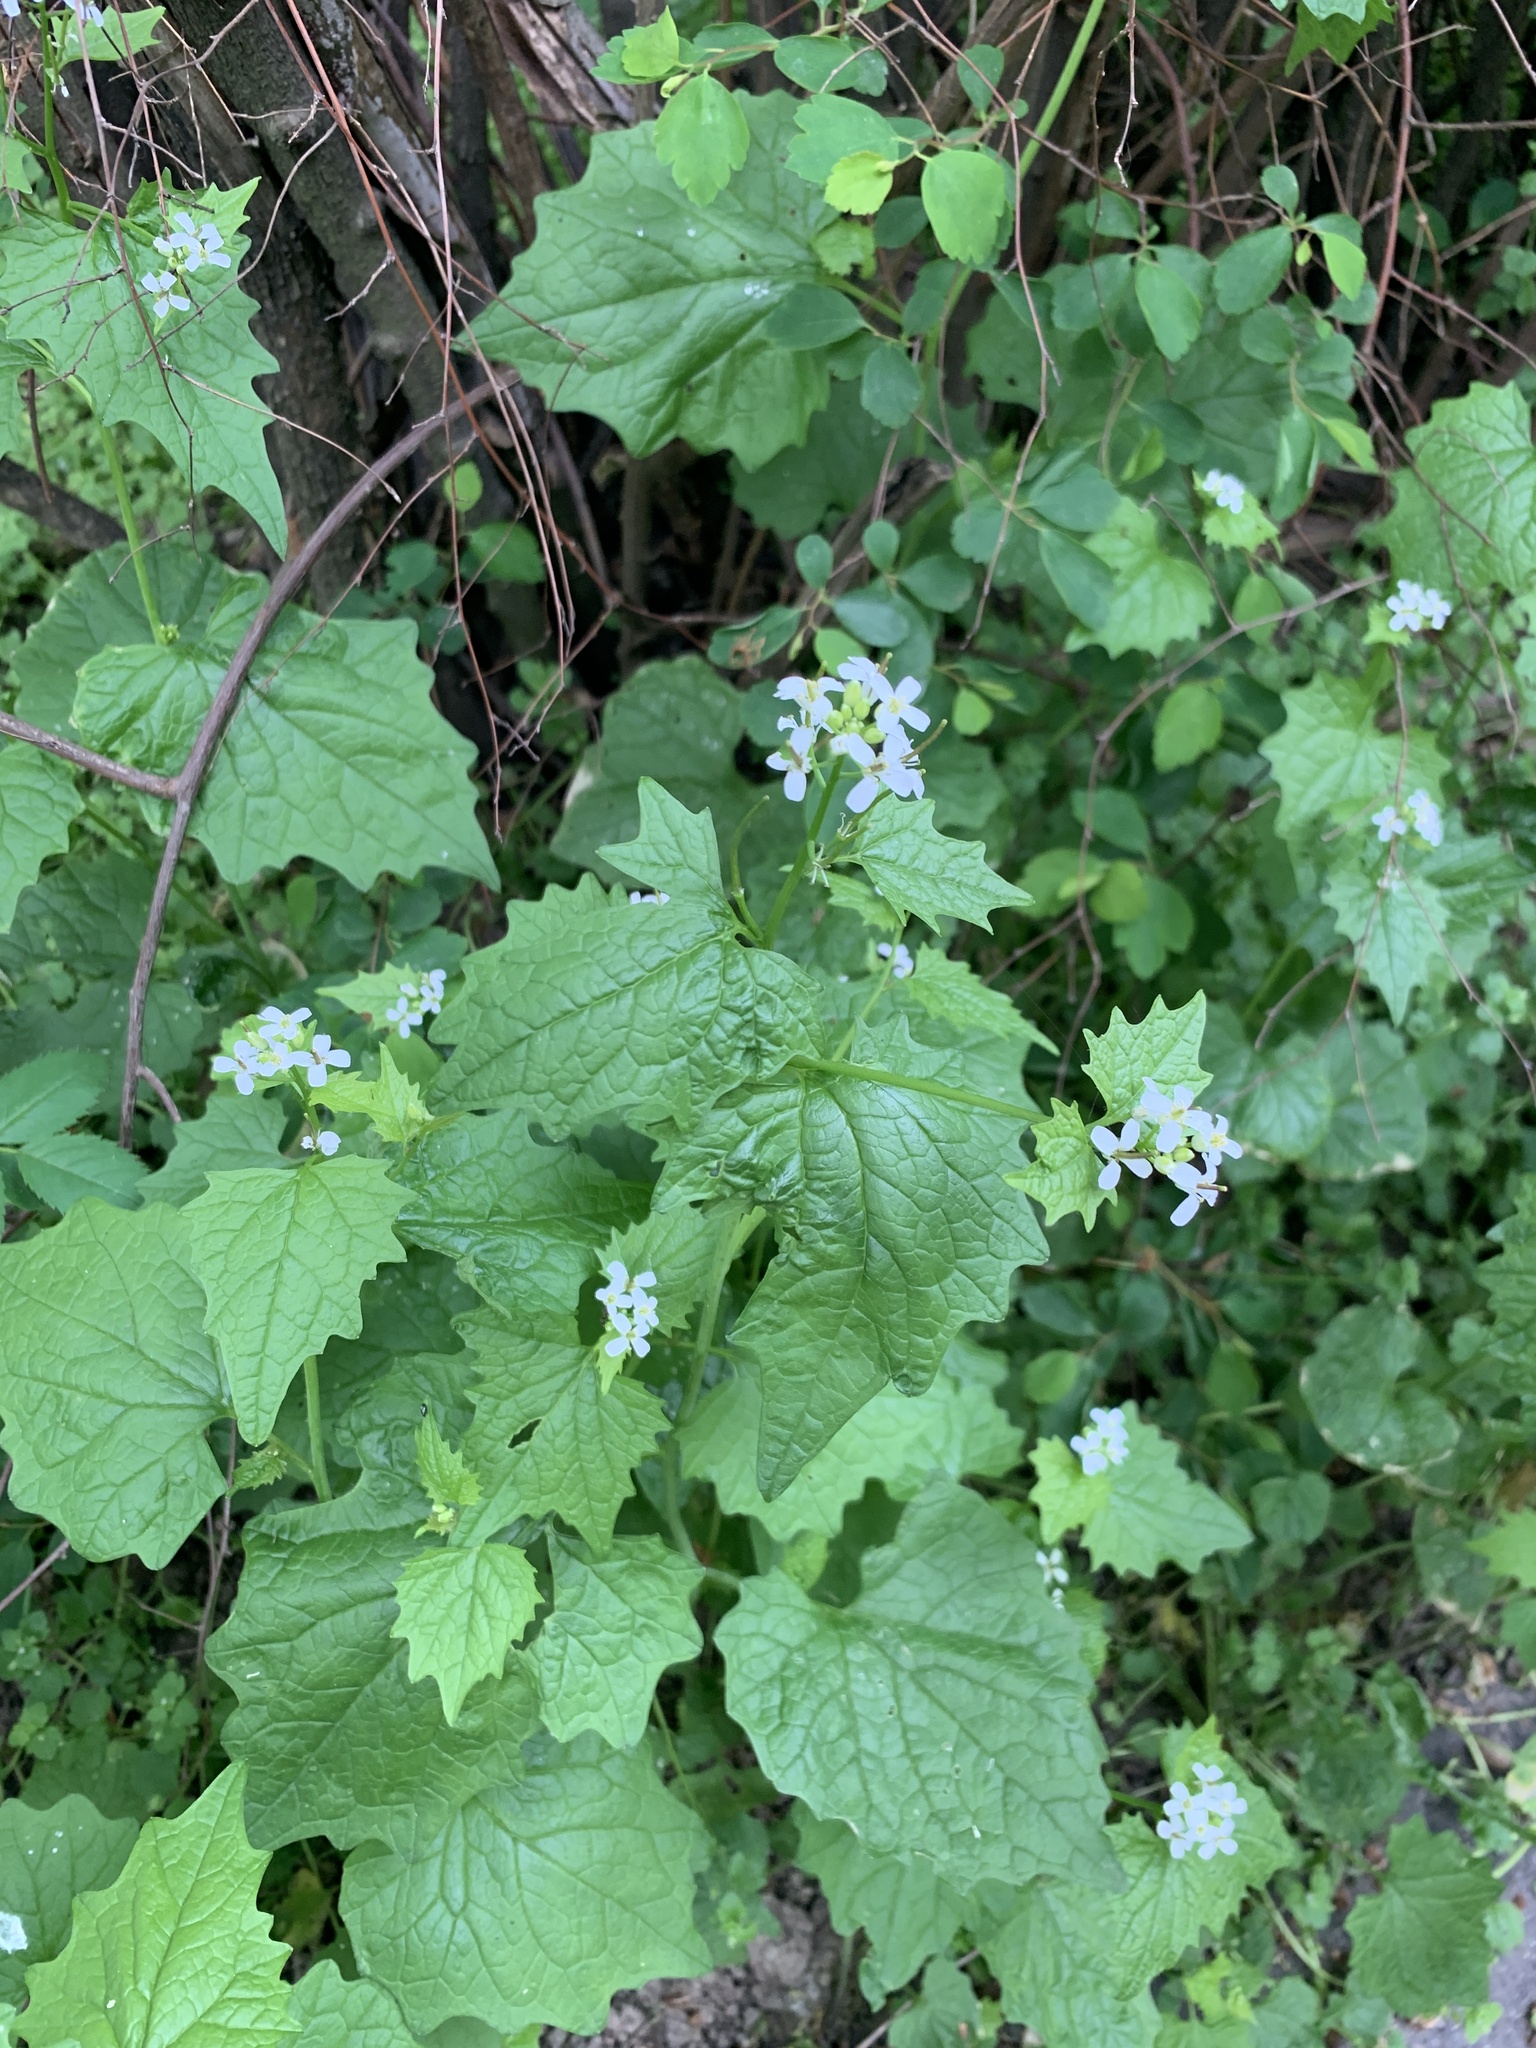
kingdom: Plantae
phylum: Tracheophyta
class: Magnoliopsida
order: Brassicales
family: Brassicaceae
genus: Alliaria
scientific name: Alliaria petiolata
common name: Garlic mustard
